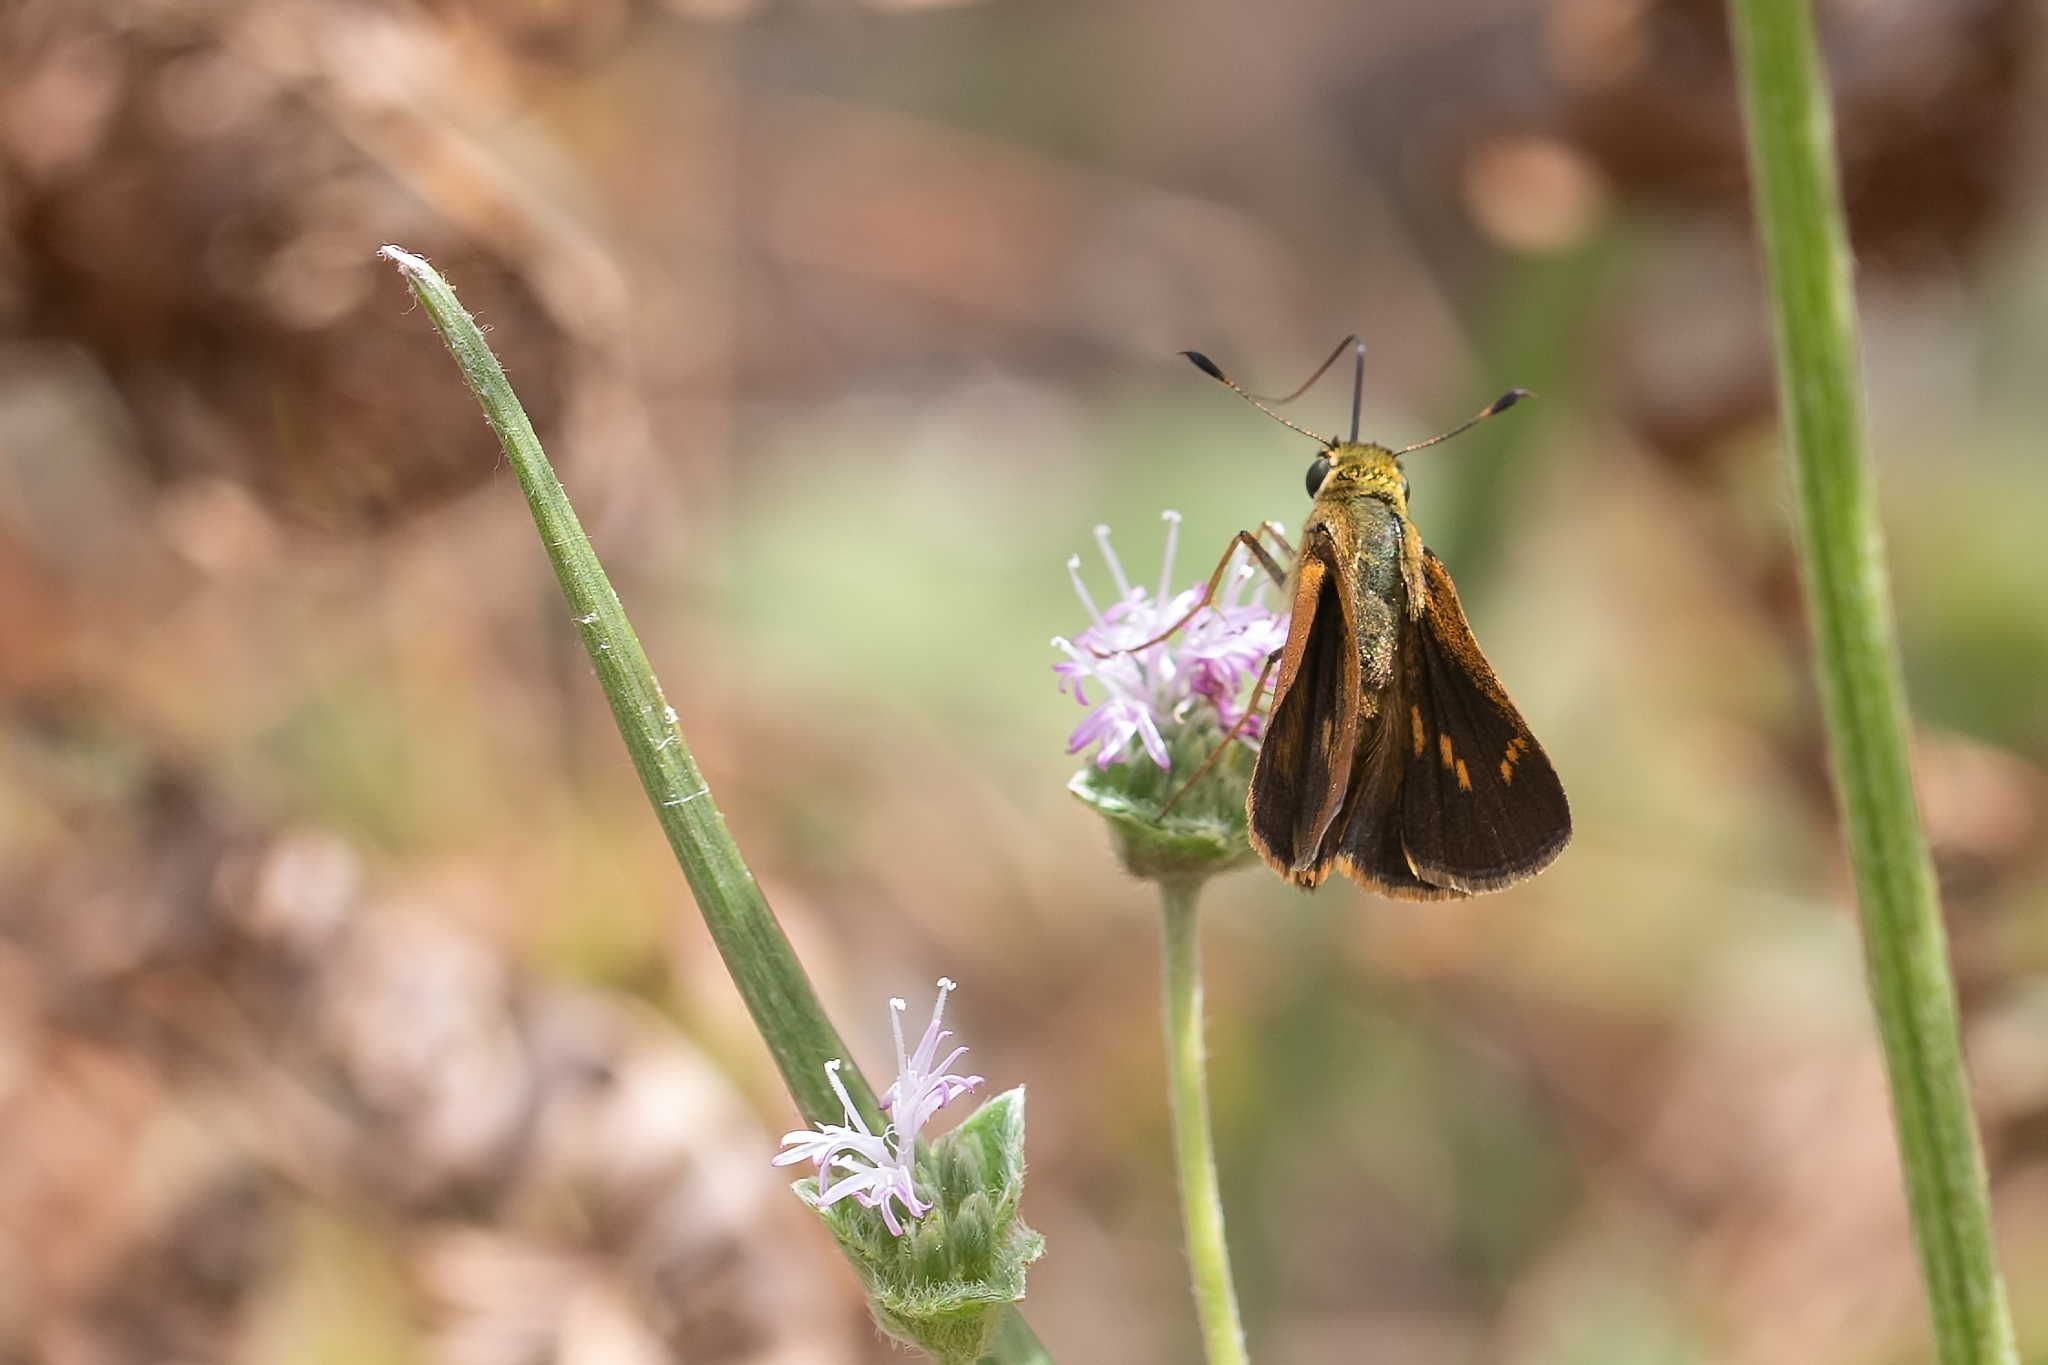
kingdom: Animalia
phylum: Arthropoda
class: Insecta
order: Lepidoptera
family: Hesperiidae
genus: Polites
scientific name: Polites otho
